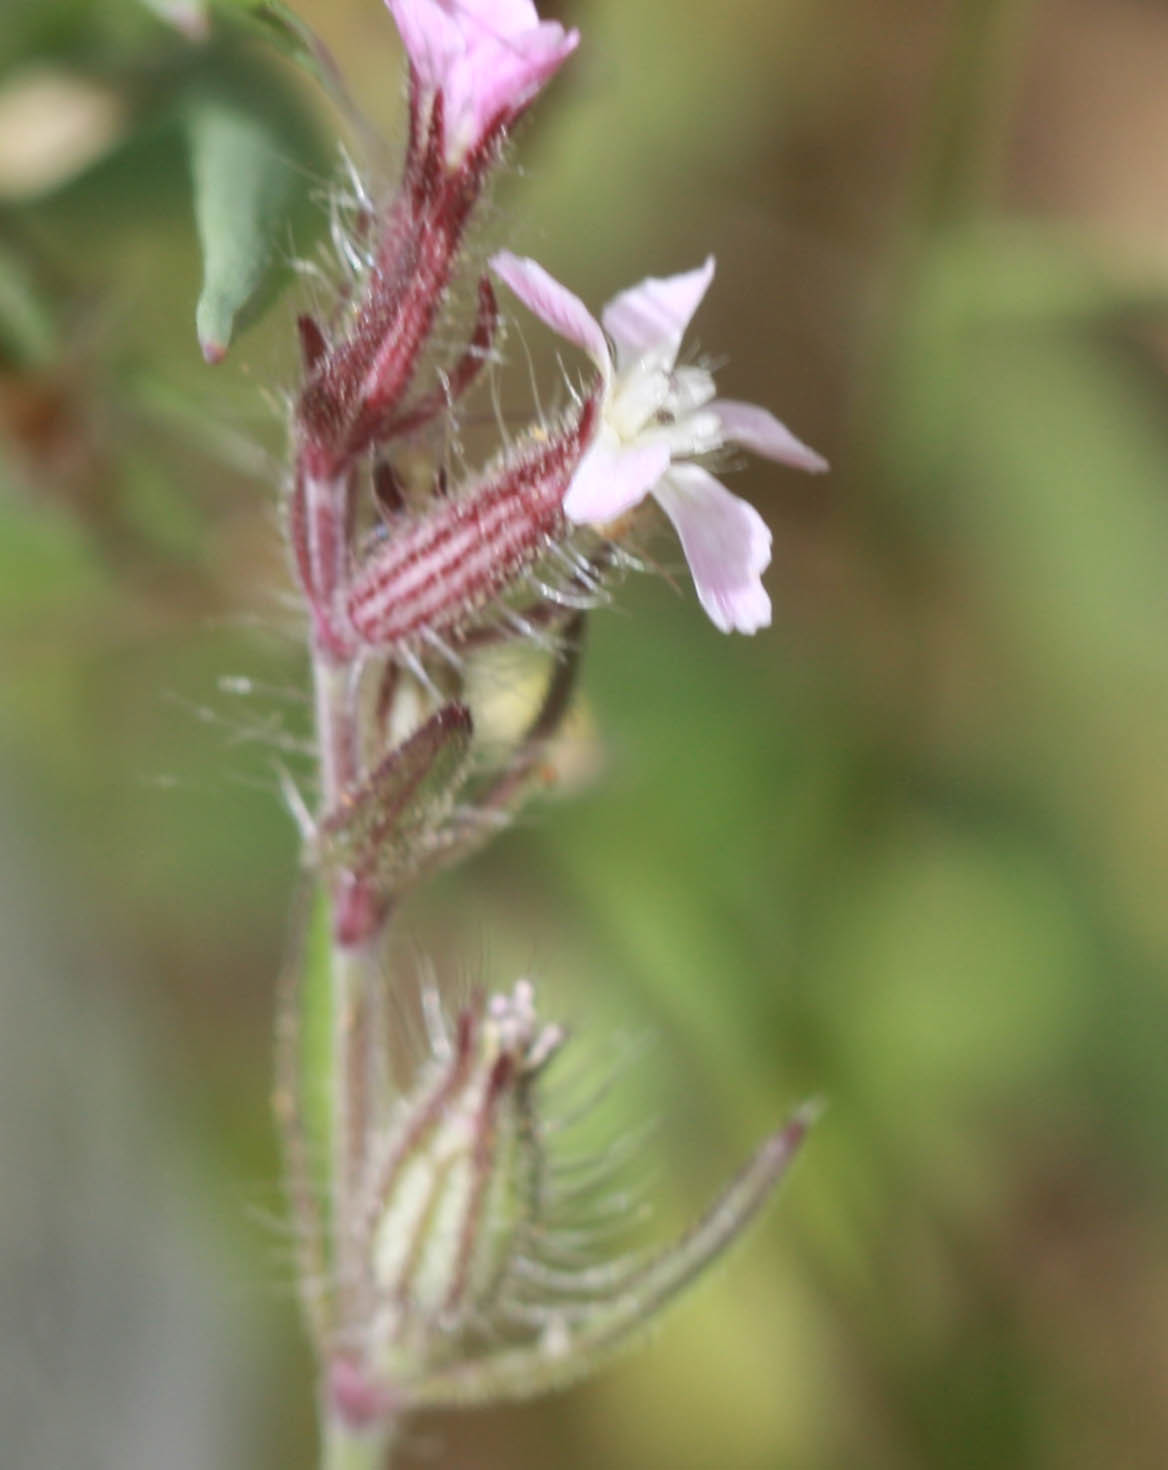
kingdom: Plantae
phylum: Tracheophyta
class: Magnoliopsida
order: Caryophyllales
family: Caryophyllaceae
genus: Silene
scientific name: Silene gallica
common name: Small-flowered catchfly
